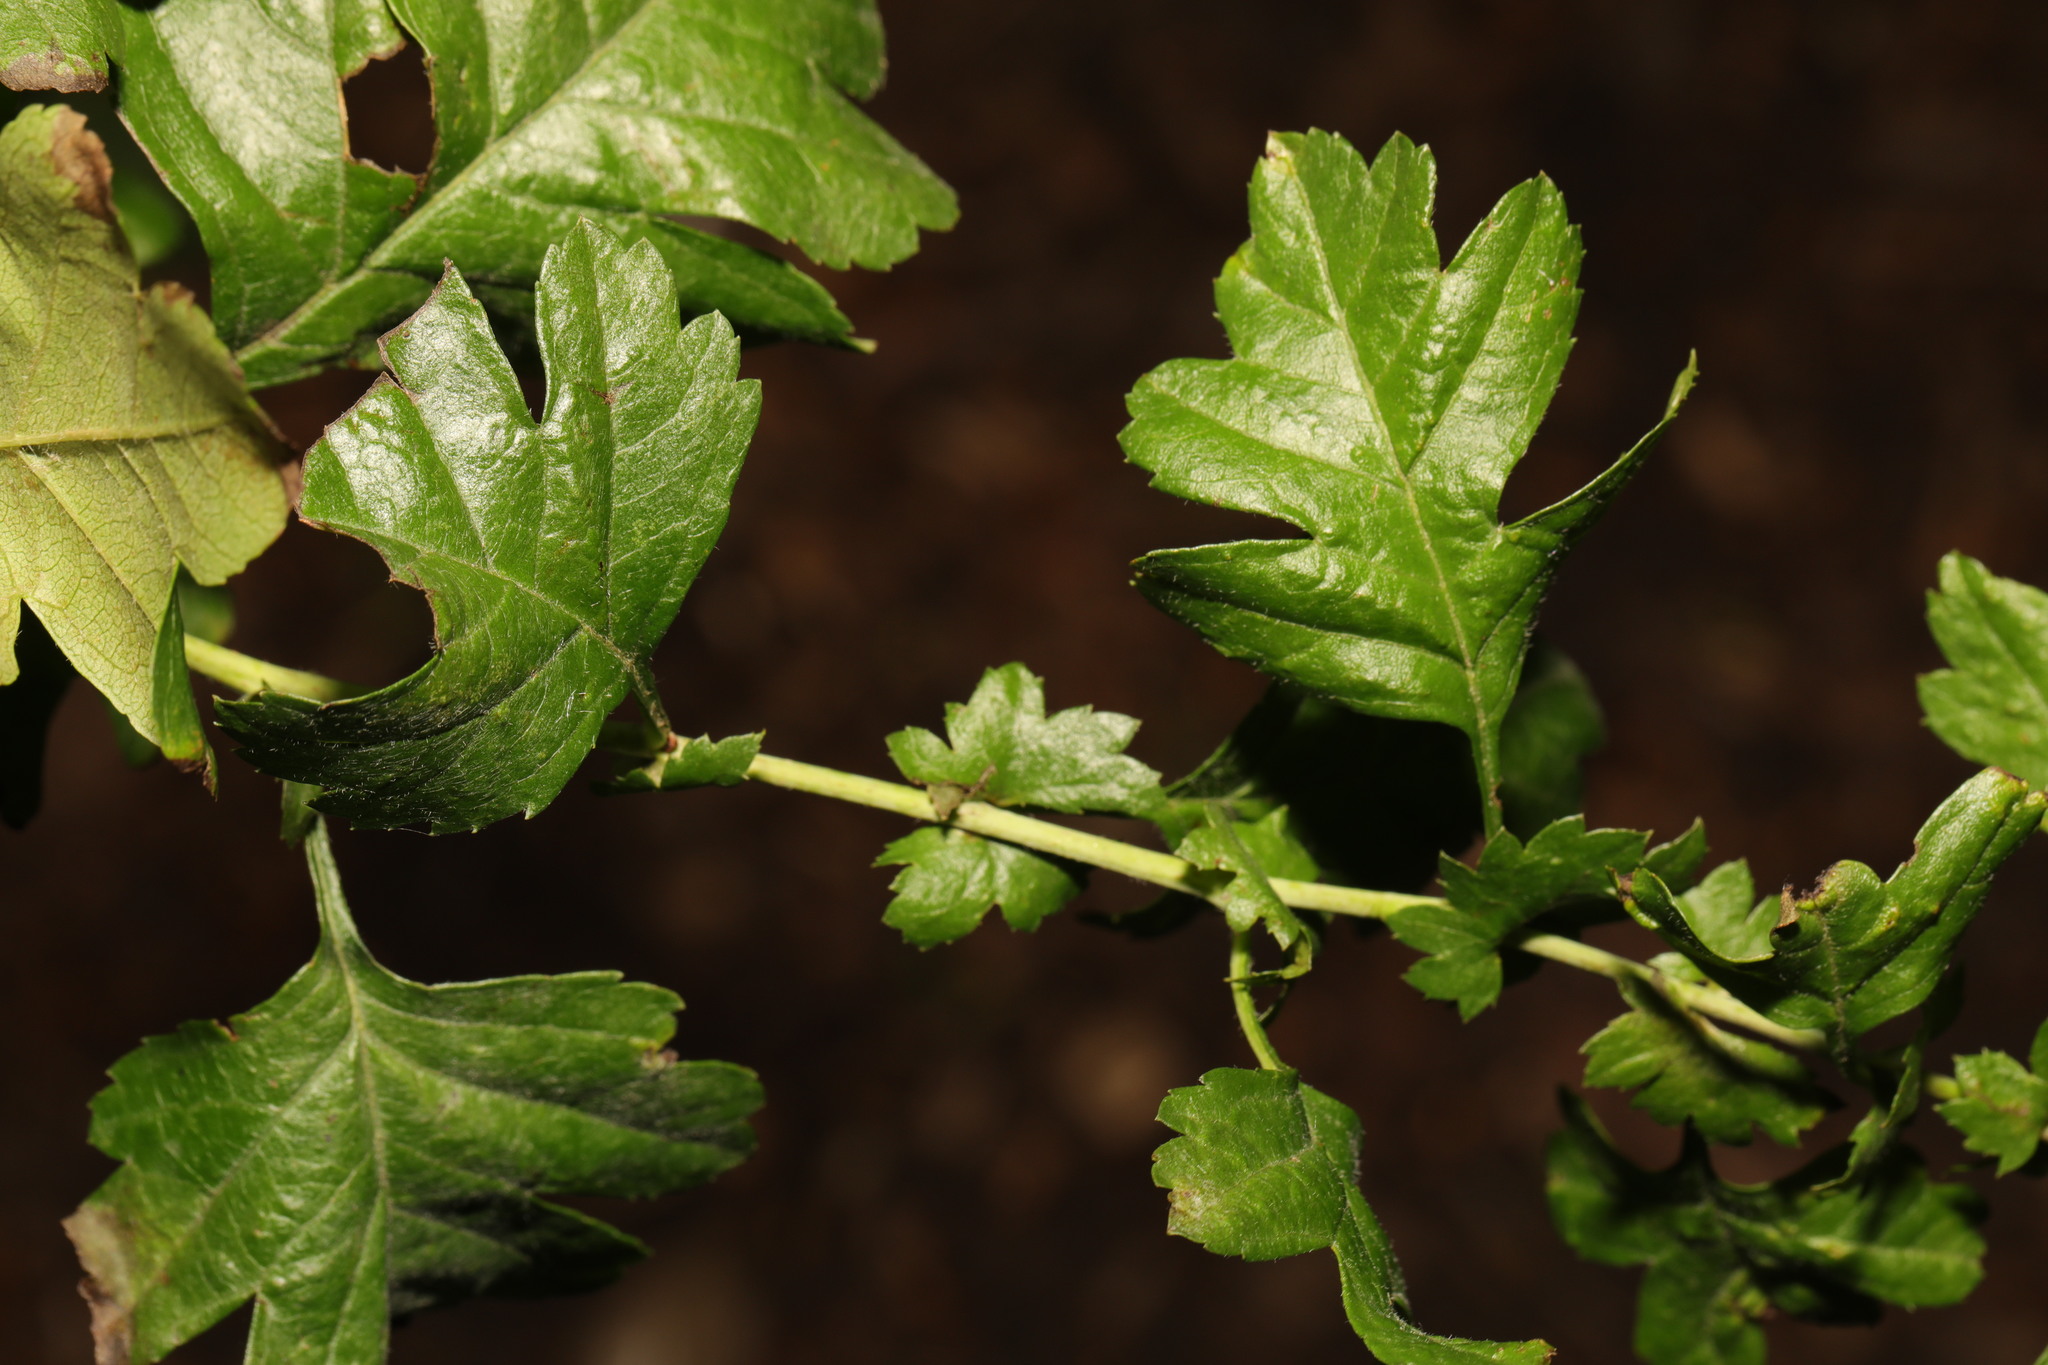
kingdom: Plantae
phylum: Tracheophyta
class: Magnoliopsida
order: Rosales
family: Rosaceae
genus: Crataegus
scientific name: Crataegus monogyna
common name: Hawthorn
